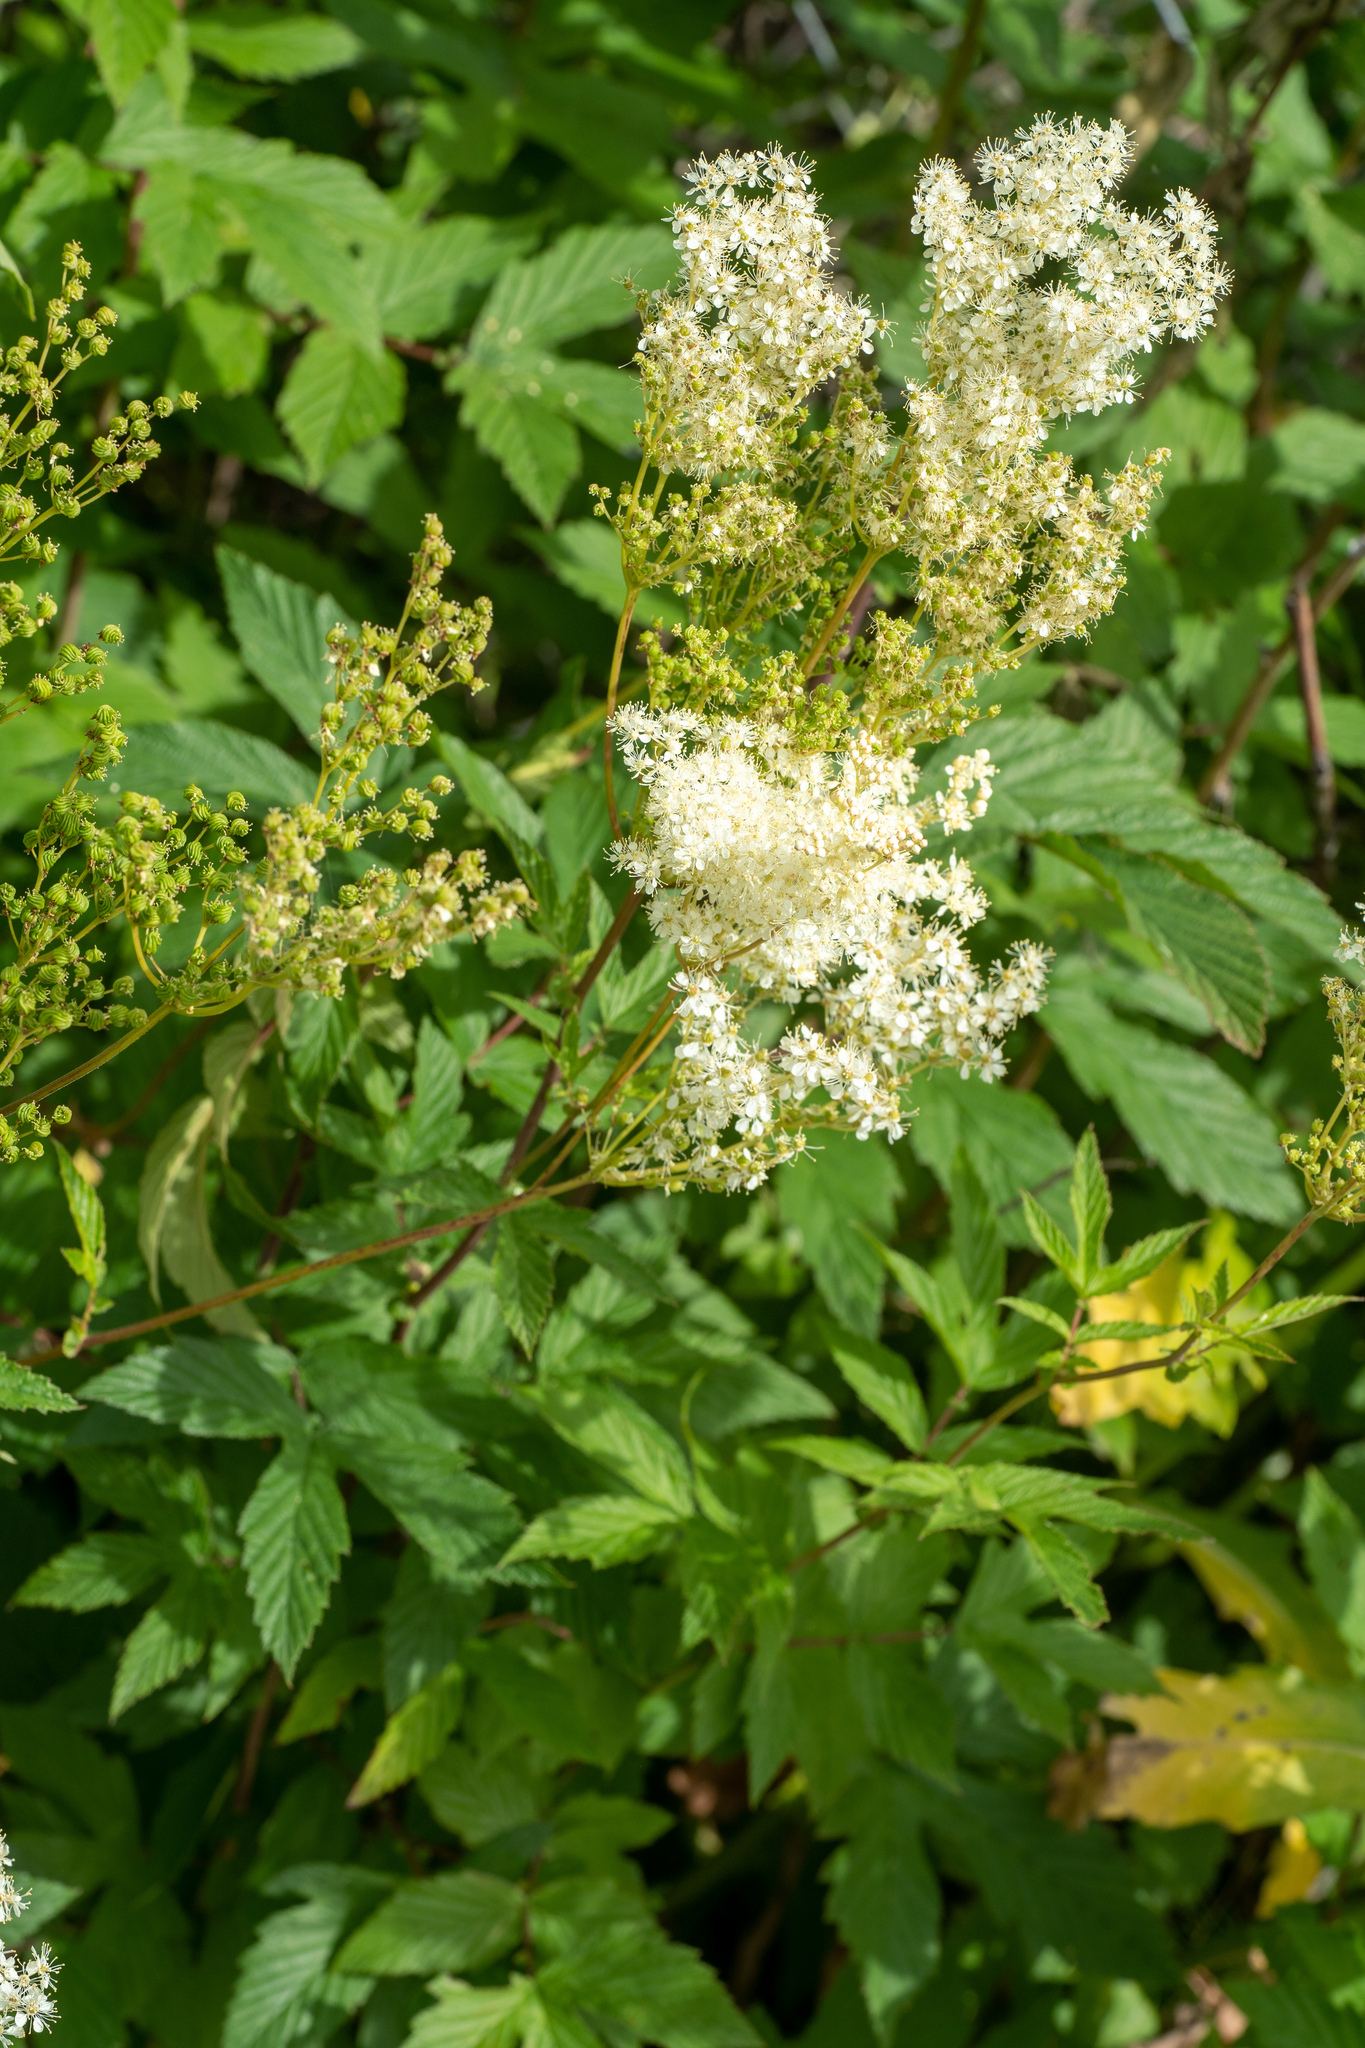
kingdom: Plantae
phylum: Tracheophyta
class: Magnoliopsida
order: Rosales
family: Rosaceae
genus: Filipendula
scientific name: Filipendula ulmaria
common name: Meadowsweet
